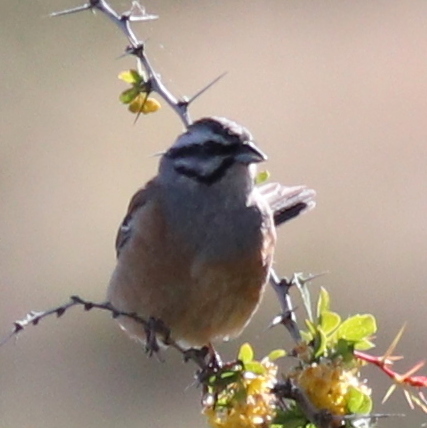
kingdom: Animalia
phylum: Chordata
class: Aves
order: Passeriformes
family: Emberizidae
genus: Emberiza
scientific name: Emberiza cia
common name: Rock bunting
